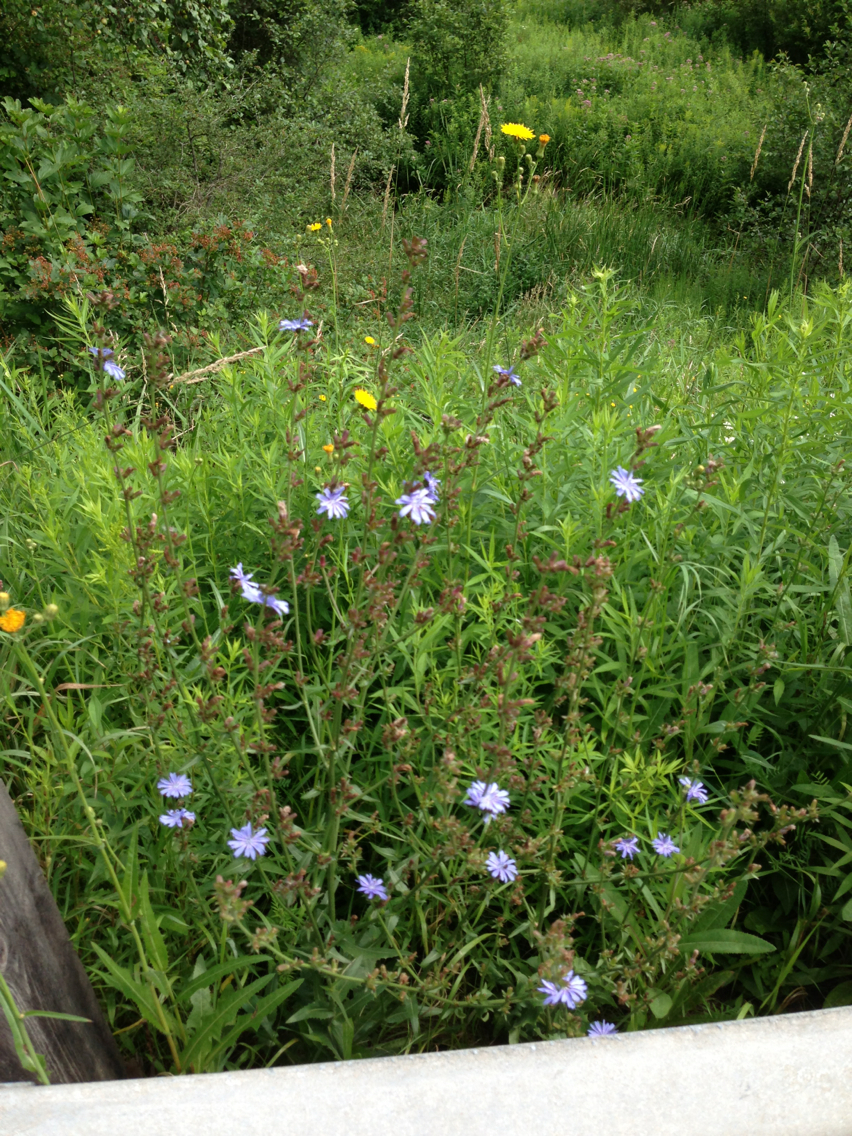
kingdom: Plantae
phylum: Tracheophyta
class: Magnoliopsida
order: Asterales
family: Asteraceae
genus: Cichorium
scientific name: Cichorium intybus
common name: Chicory
